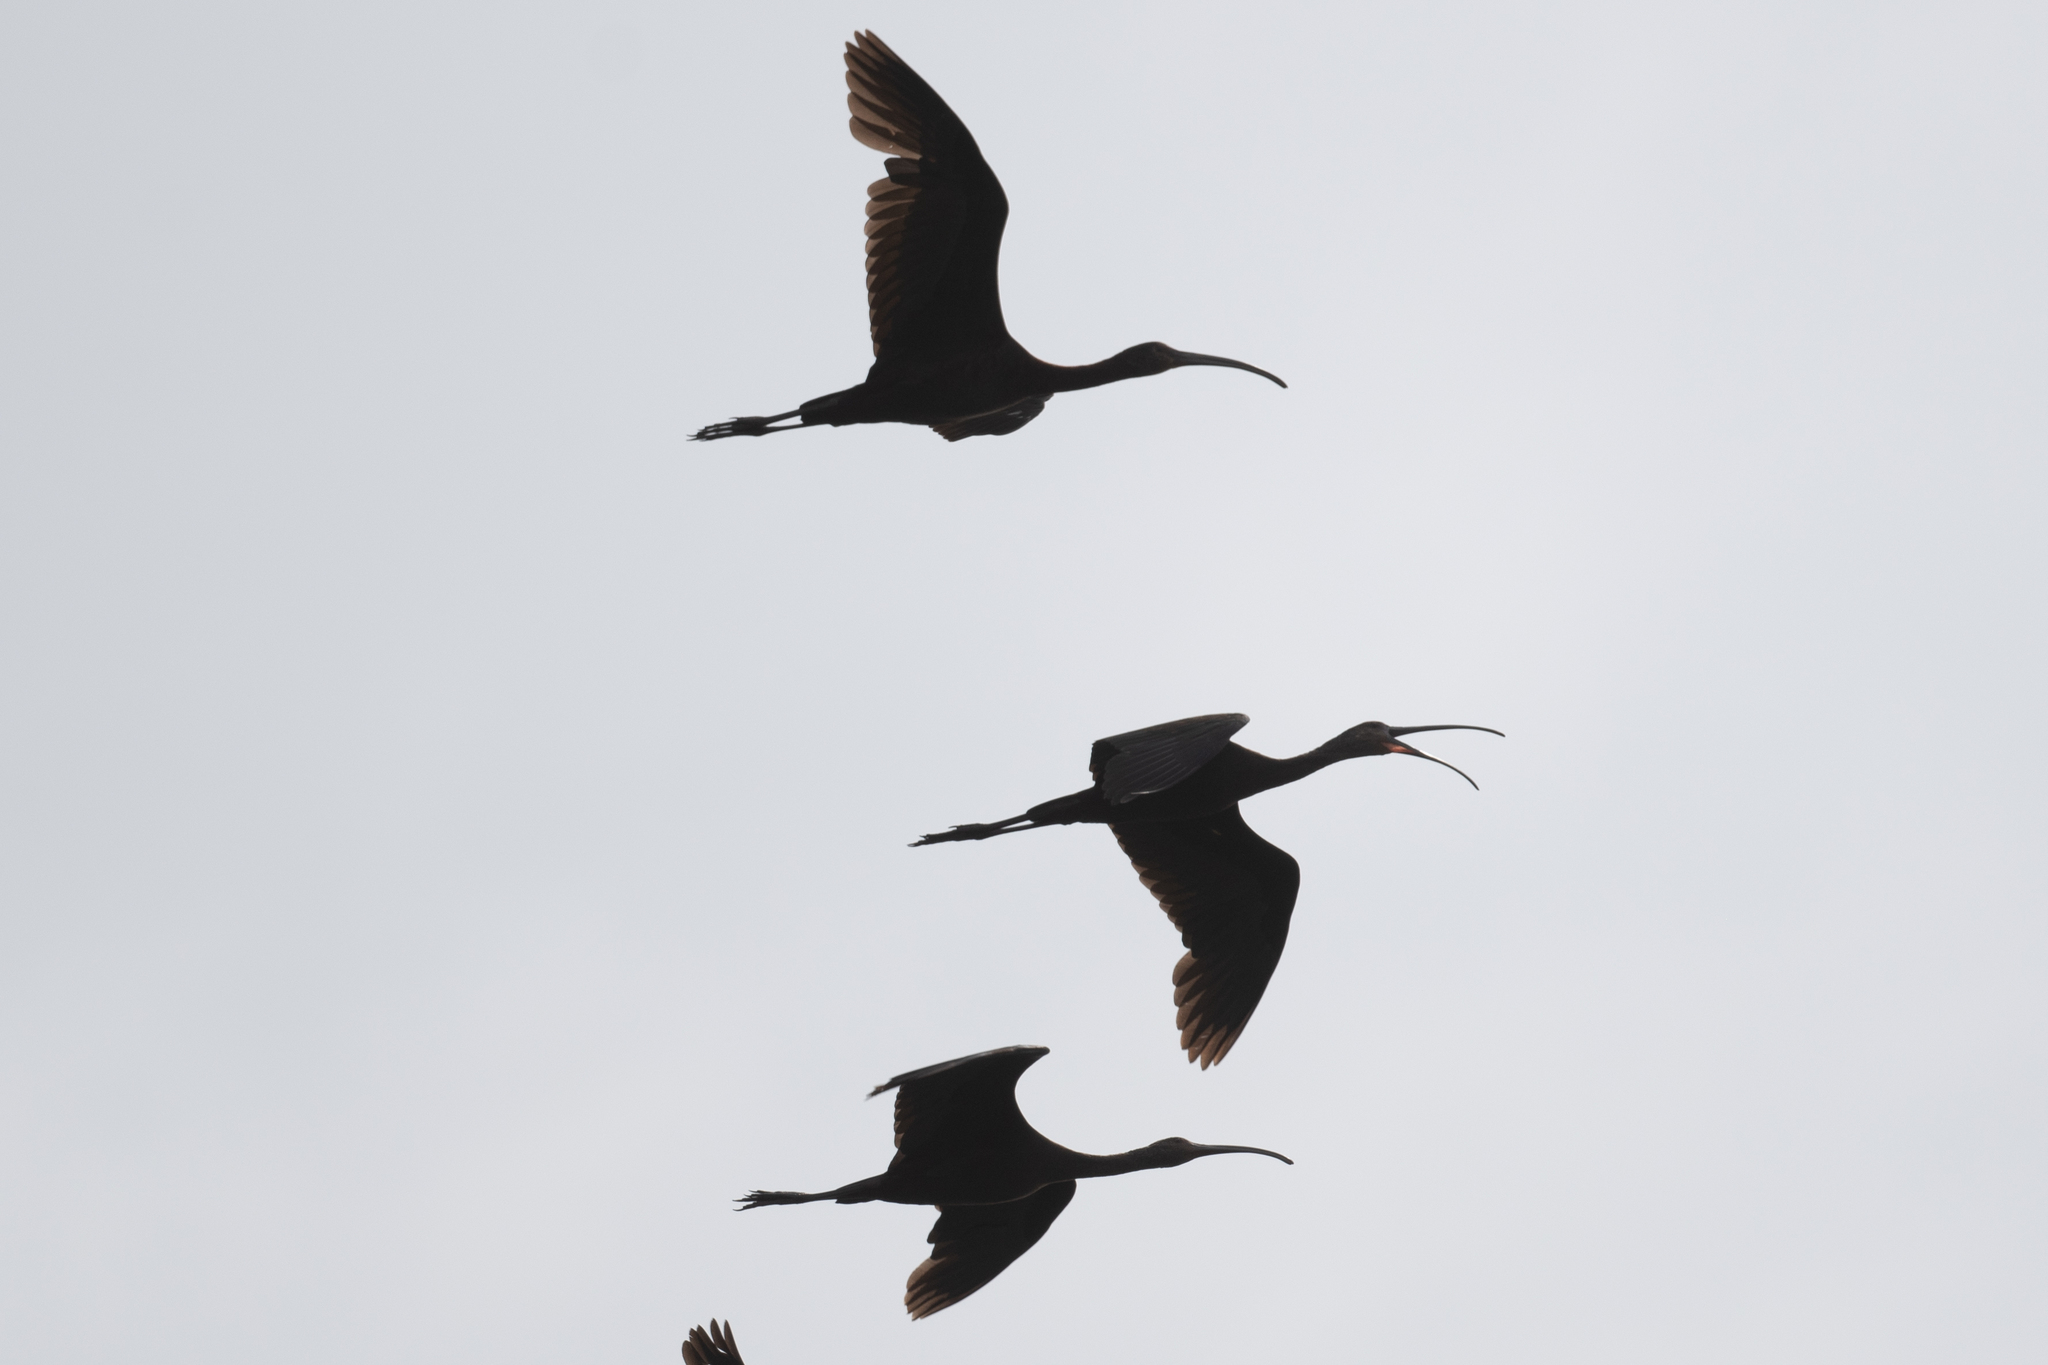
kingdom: Animalia
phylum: Chordata
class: Aves
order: Pelecaniformes
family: Threskiornithidae
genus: Plegadis
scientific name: Plegadis chihi
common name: White-faced ibis
